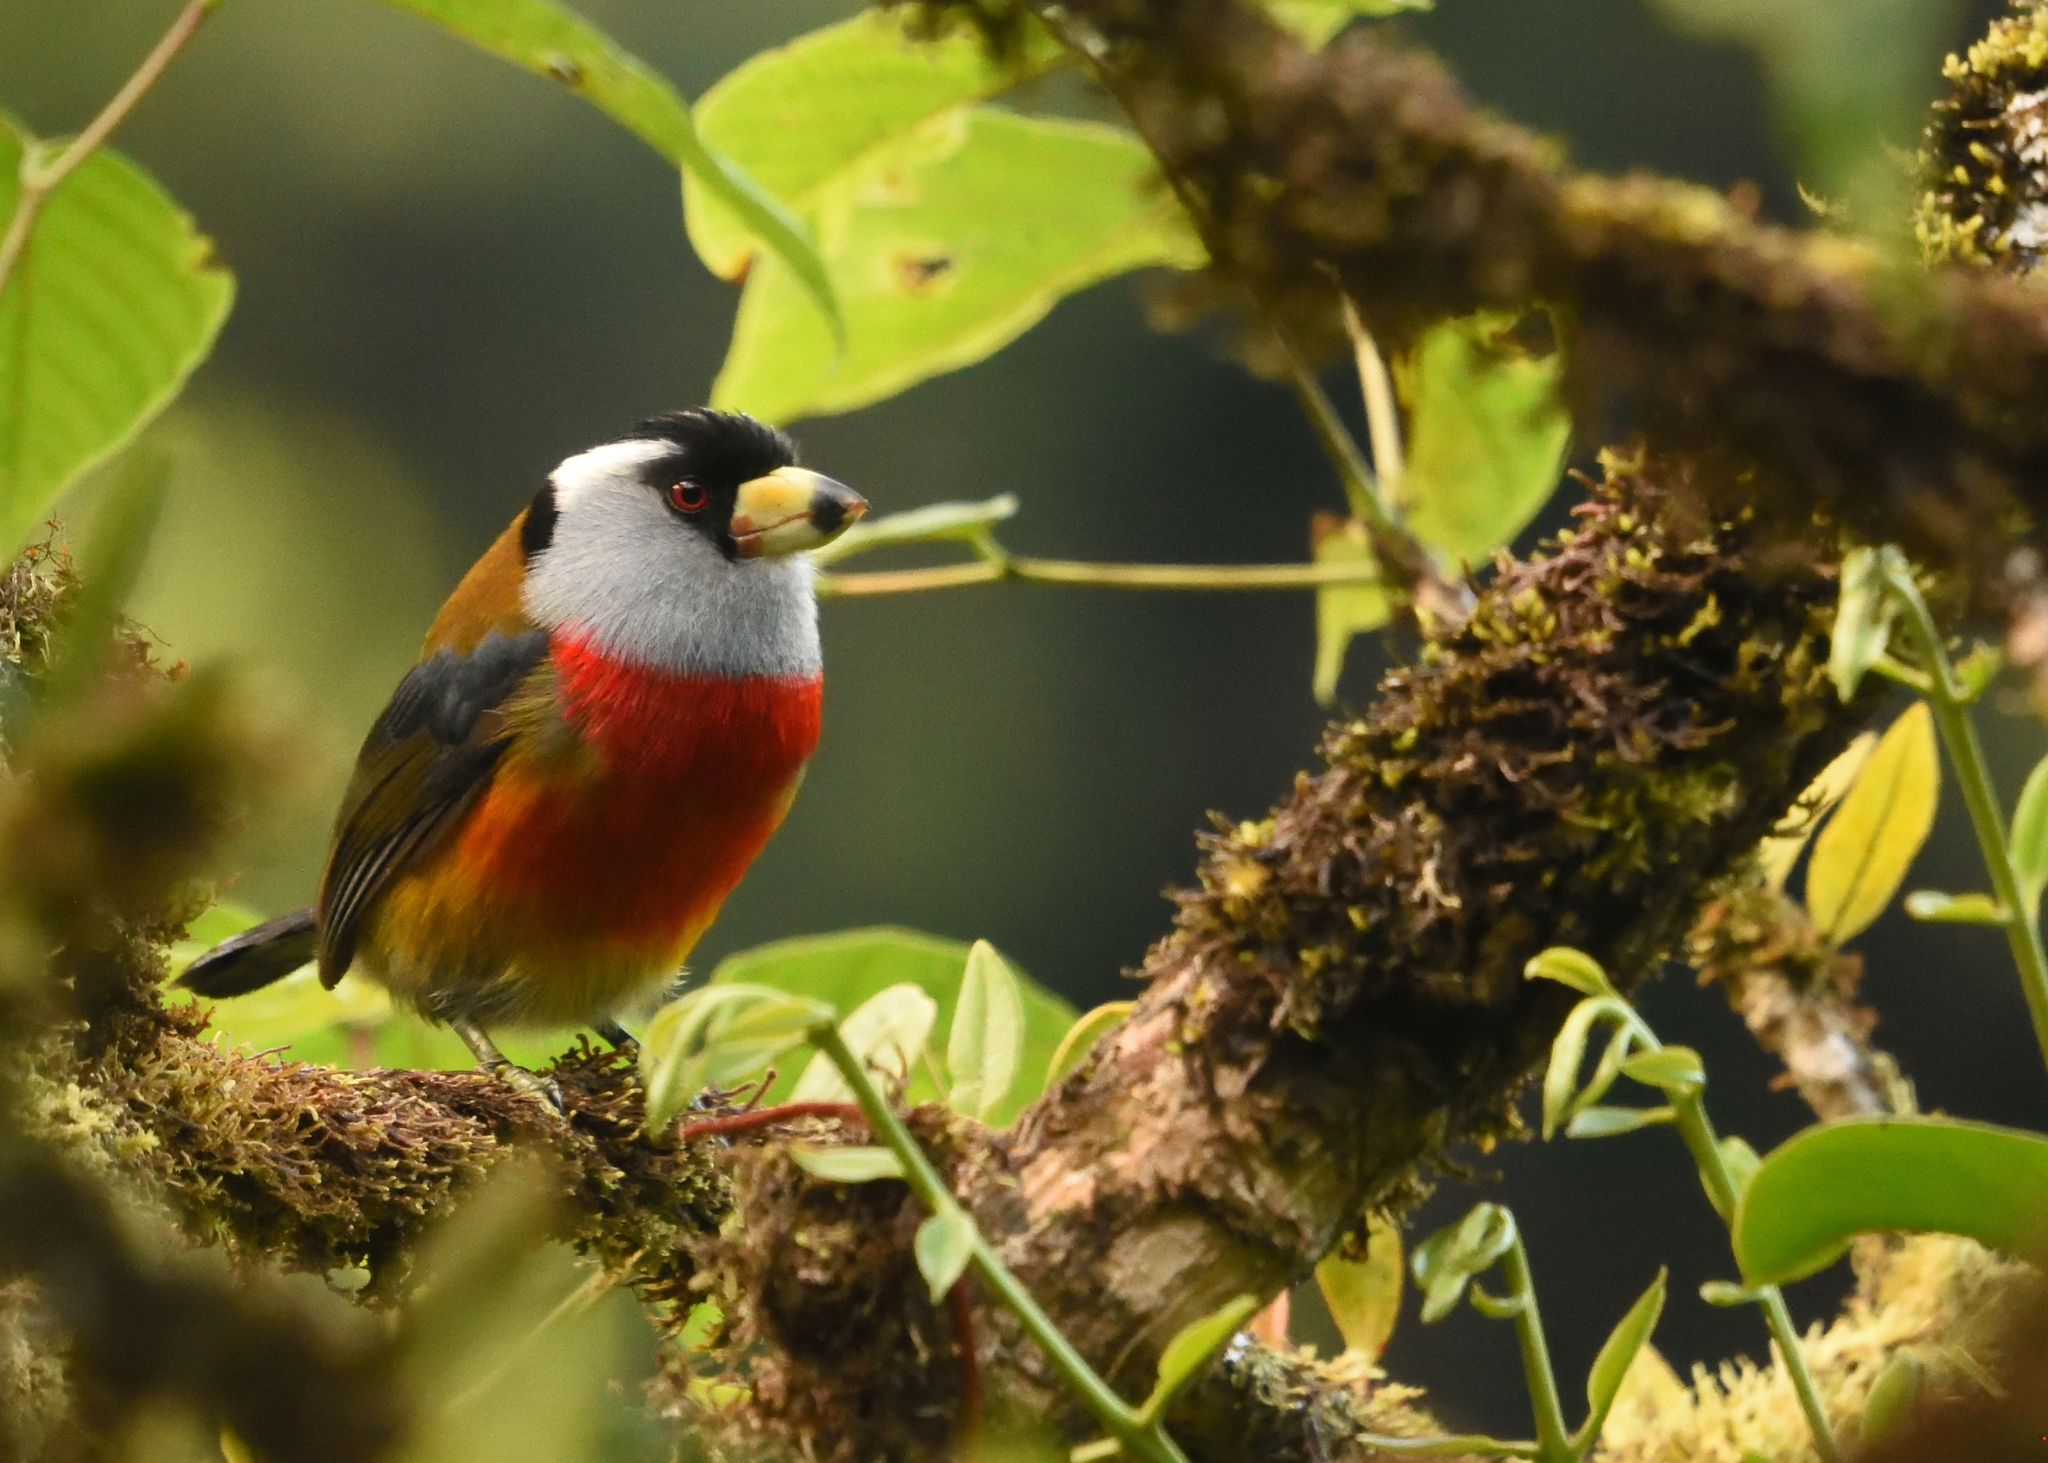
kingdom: Animalia
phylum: Chordata
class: Aves
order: Piciformes
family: Semnornithidae
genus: Semnornis
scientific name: Semnornis ramphastinus
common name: Toucan barbet
